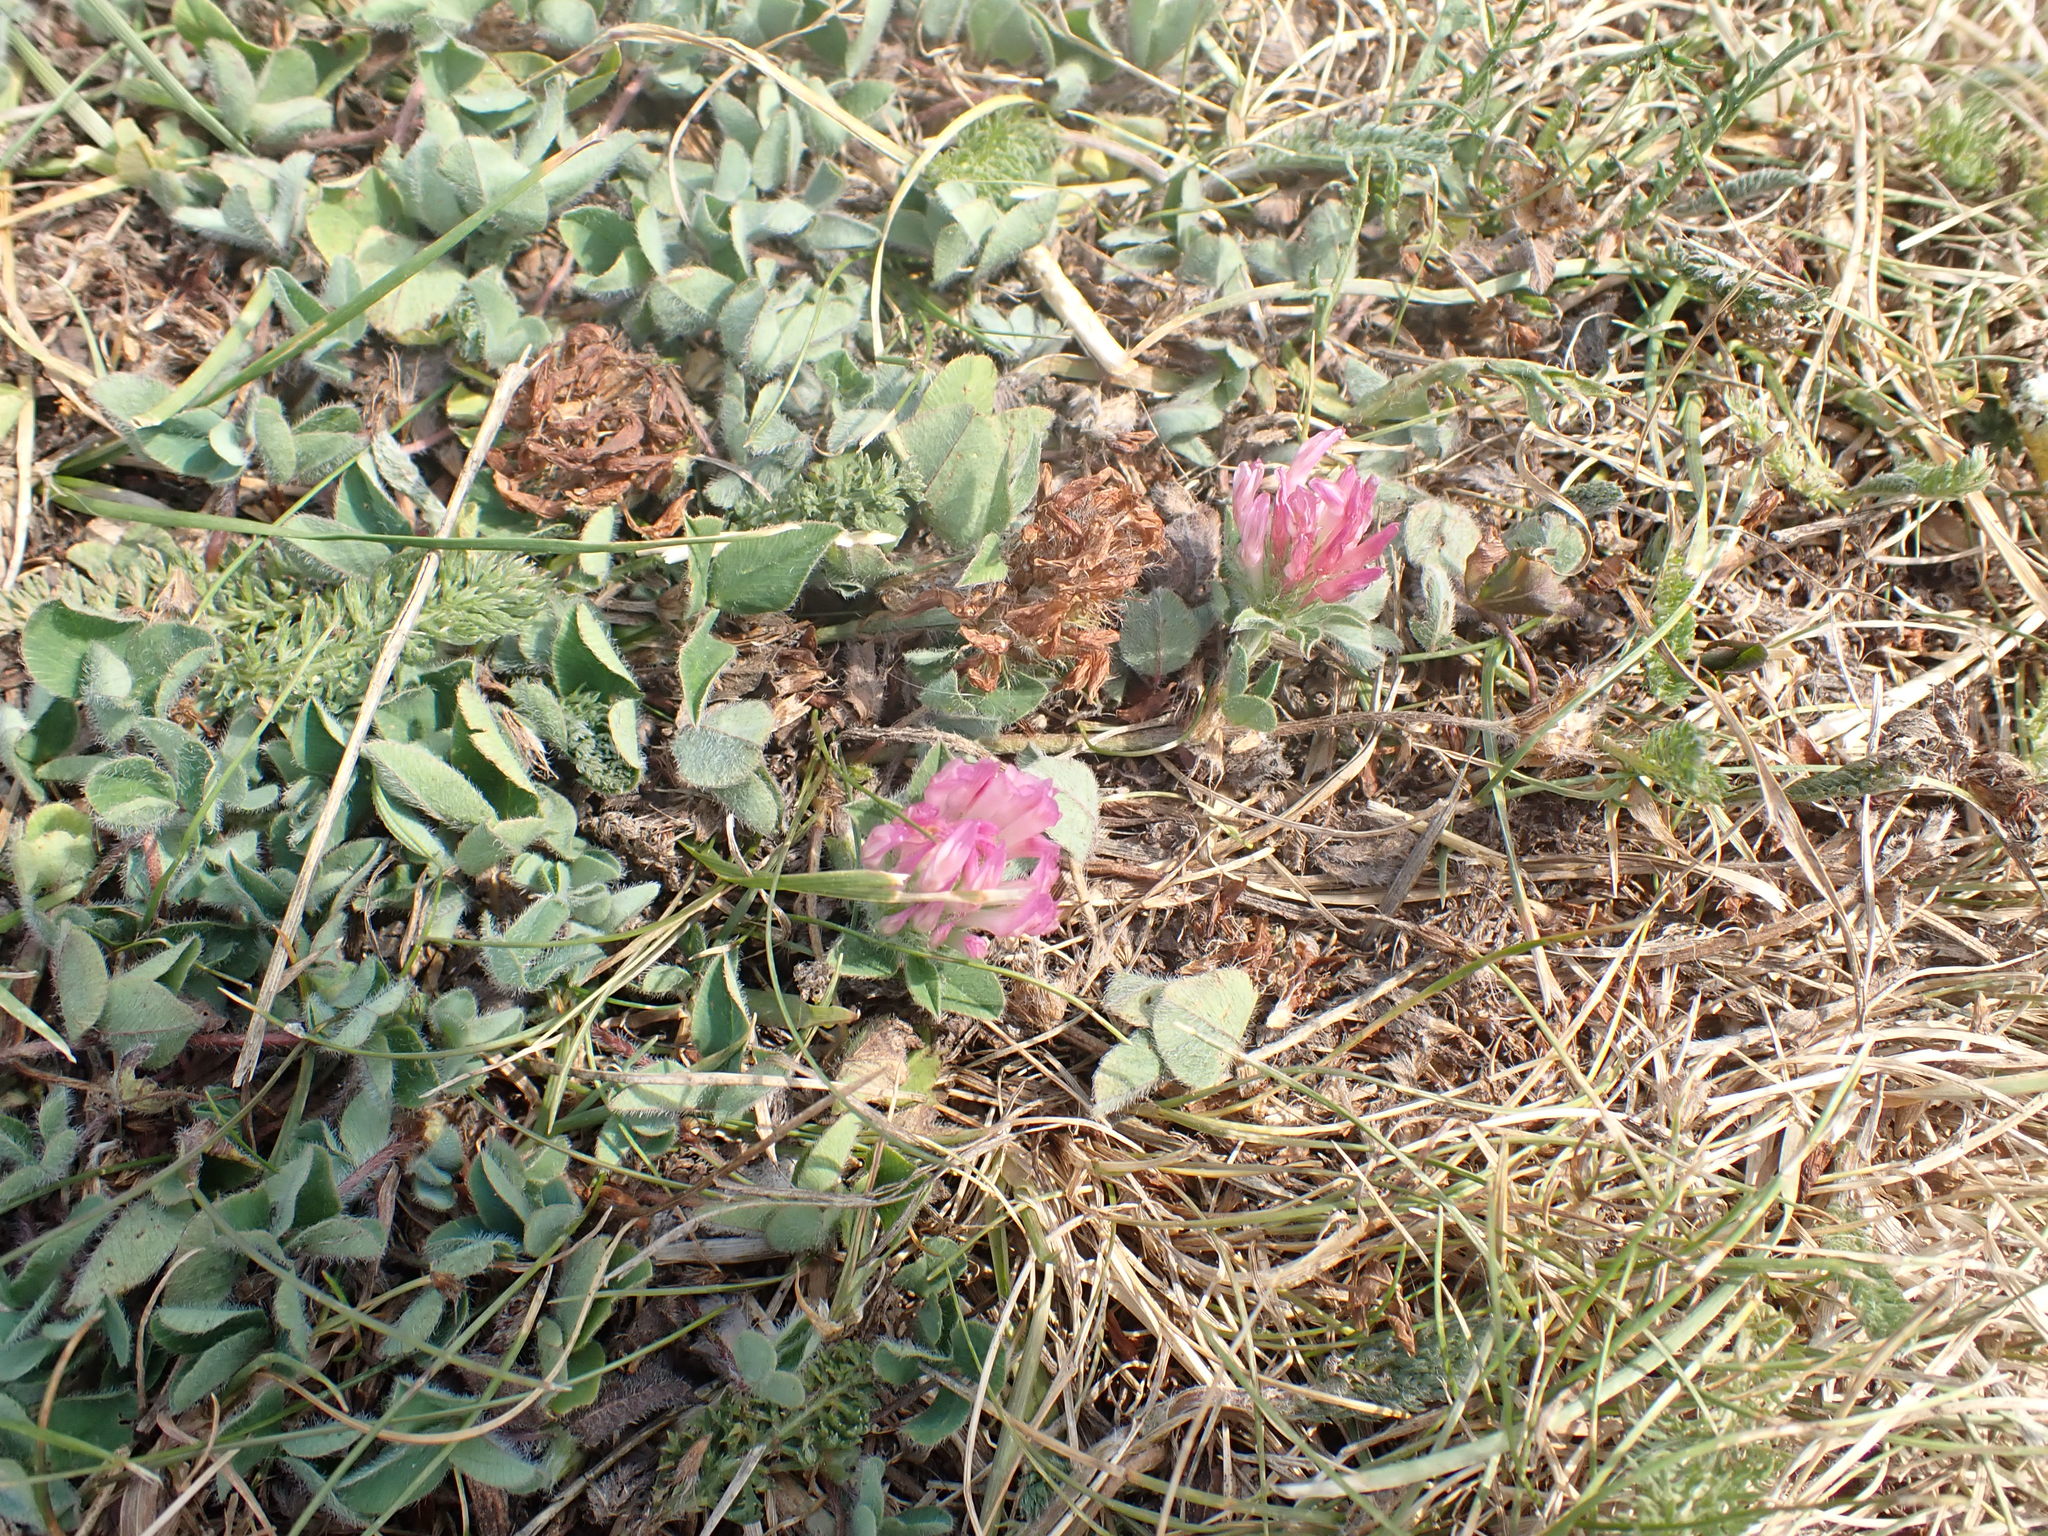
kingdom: Plantae
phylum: Tracheophyta
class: Magnoliopsida
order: Fabales
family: Fabaceae
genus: Trifolium
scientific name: Trifolium pratense
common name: Red clover
